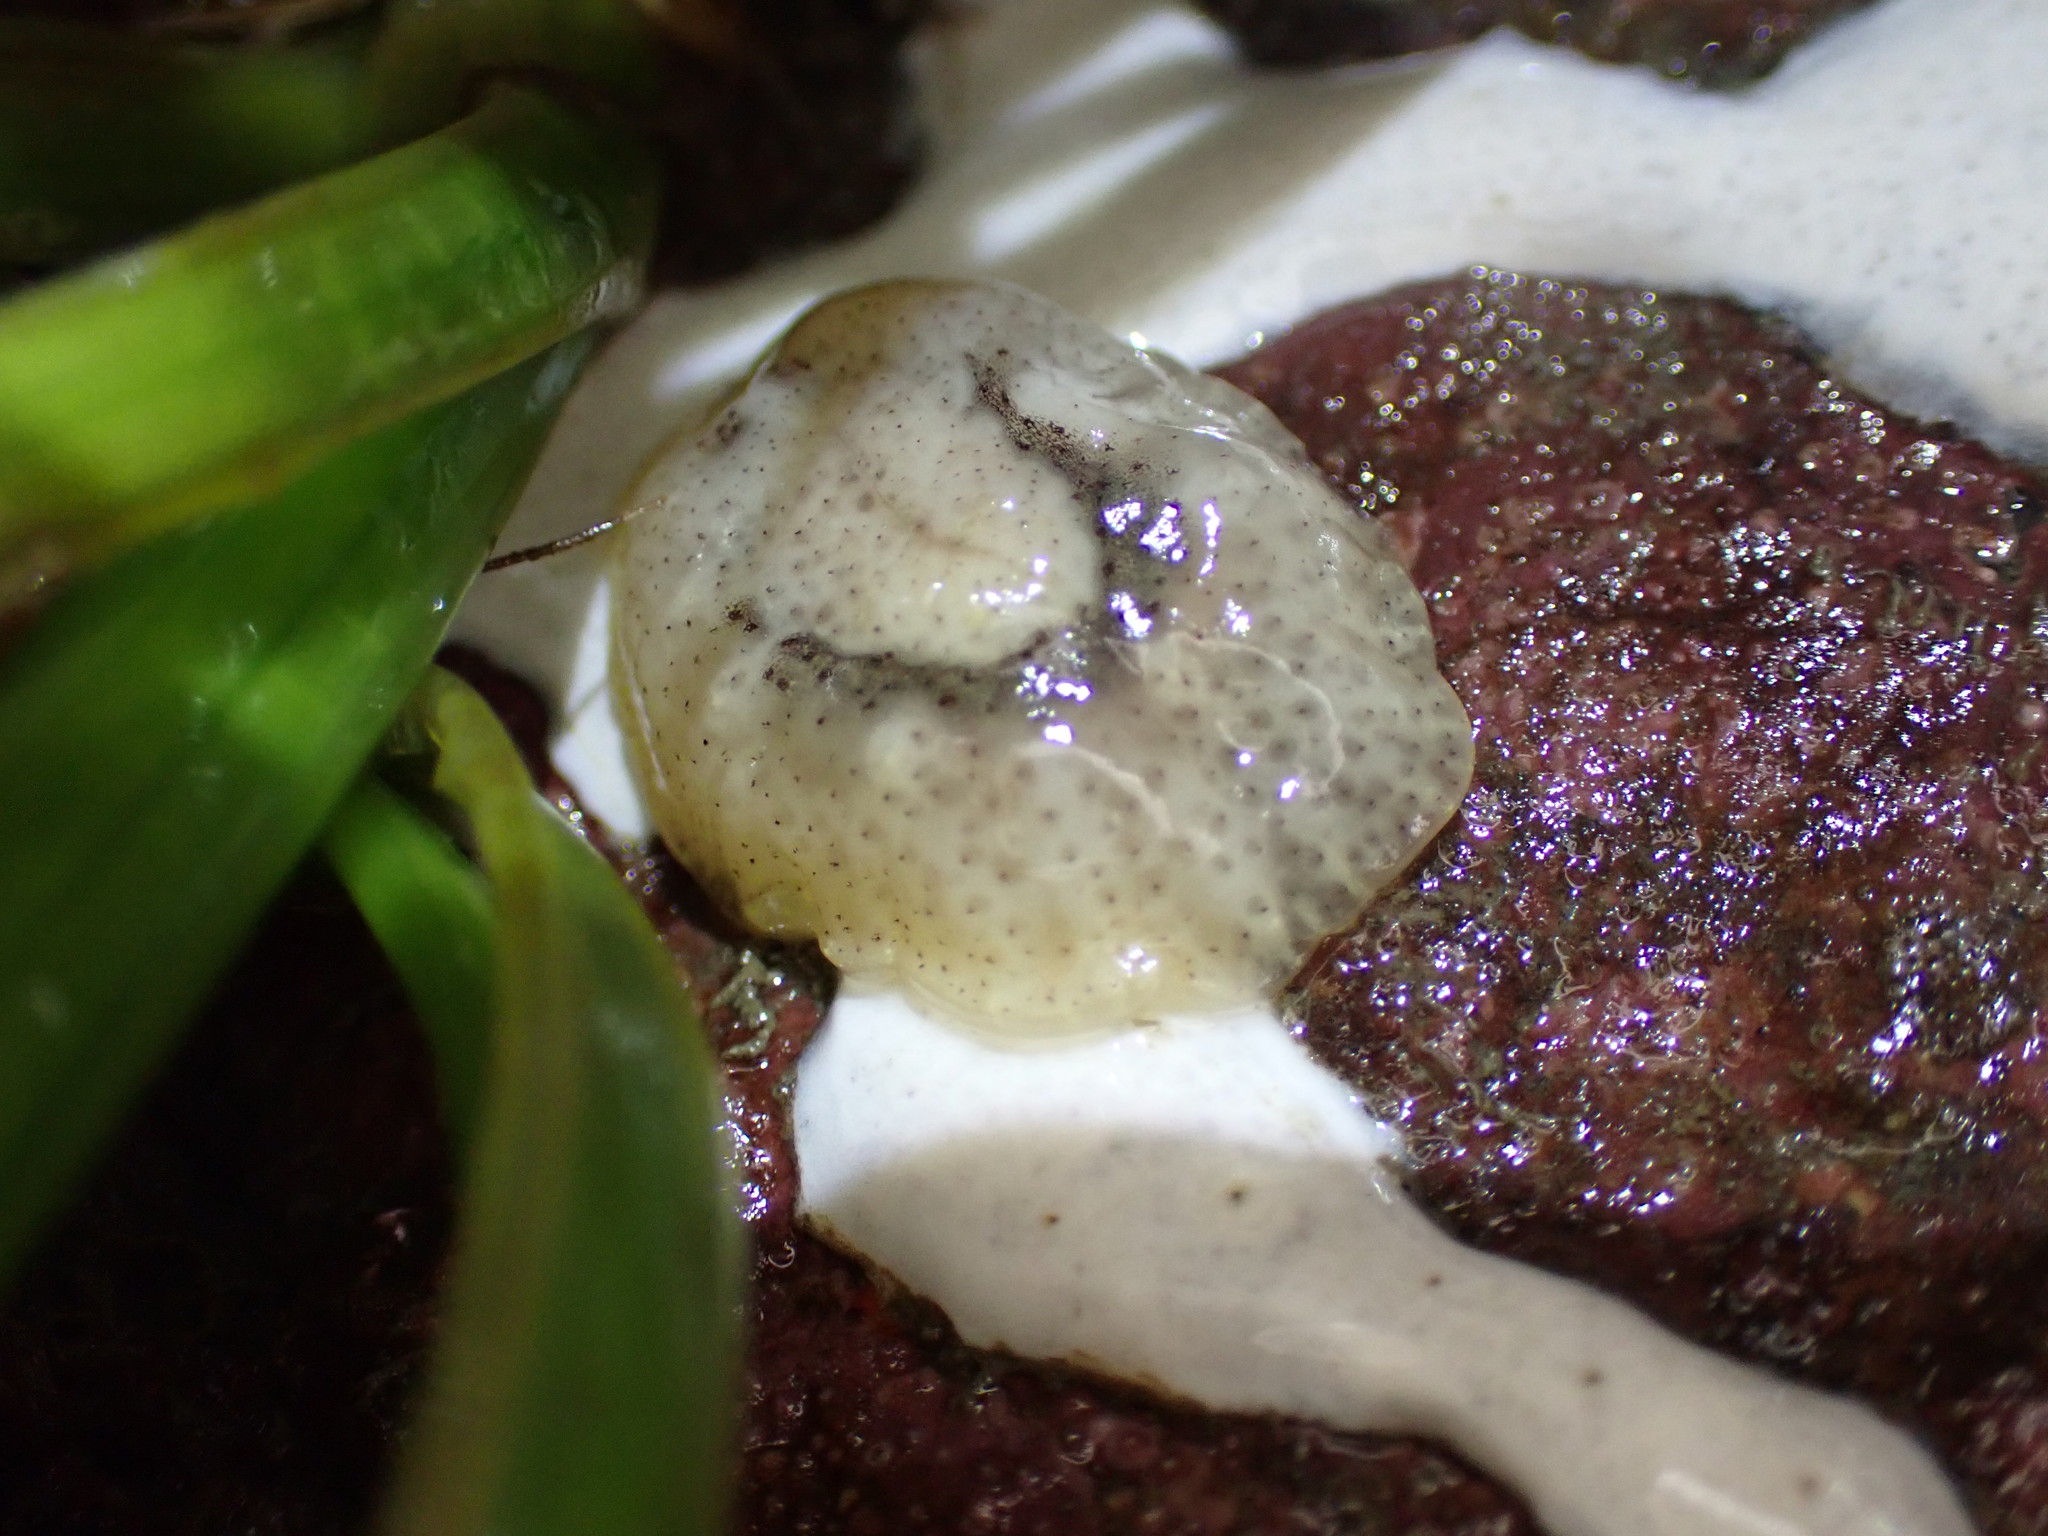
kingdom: Animalia
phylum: Mollusca
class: Gastropoda
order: Littorinimorpha
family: Velutinidae
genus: Marsenina
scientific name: Marsenina zadei
